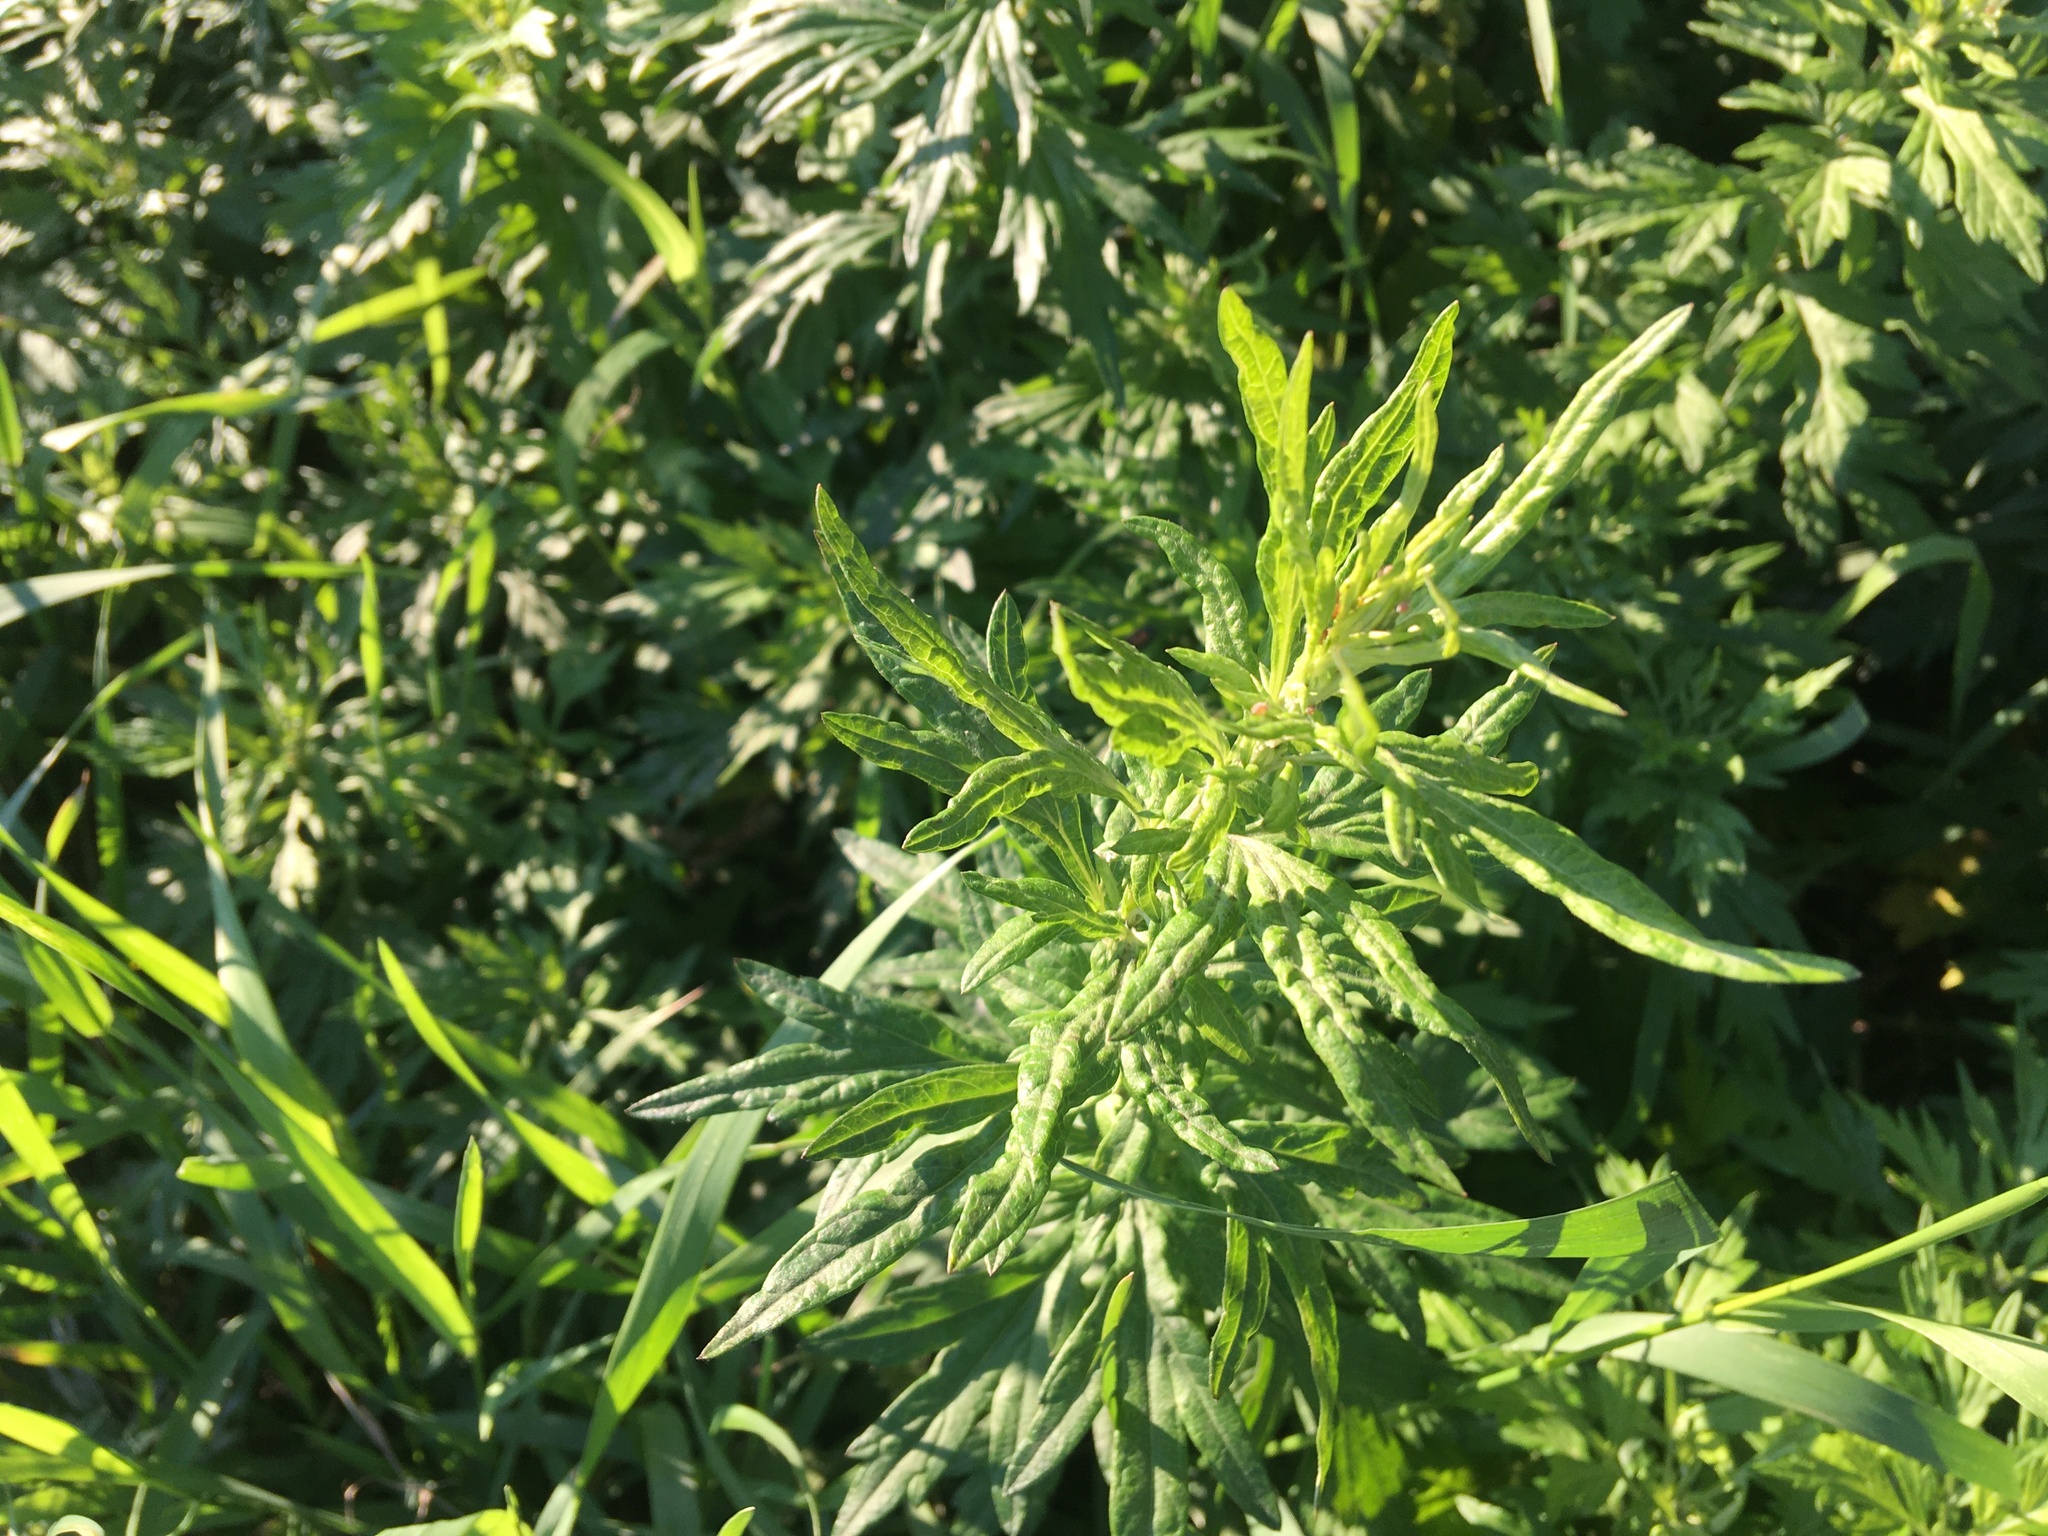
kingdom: Plantae
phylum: Tracheophyta
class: Magnoliopsida
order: Asterales
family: Asteraceae
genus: Artemisia
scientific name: Artemisia vulgaris
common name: Mugwort
